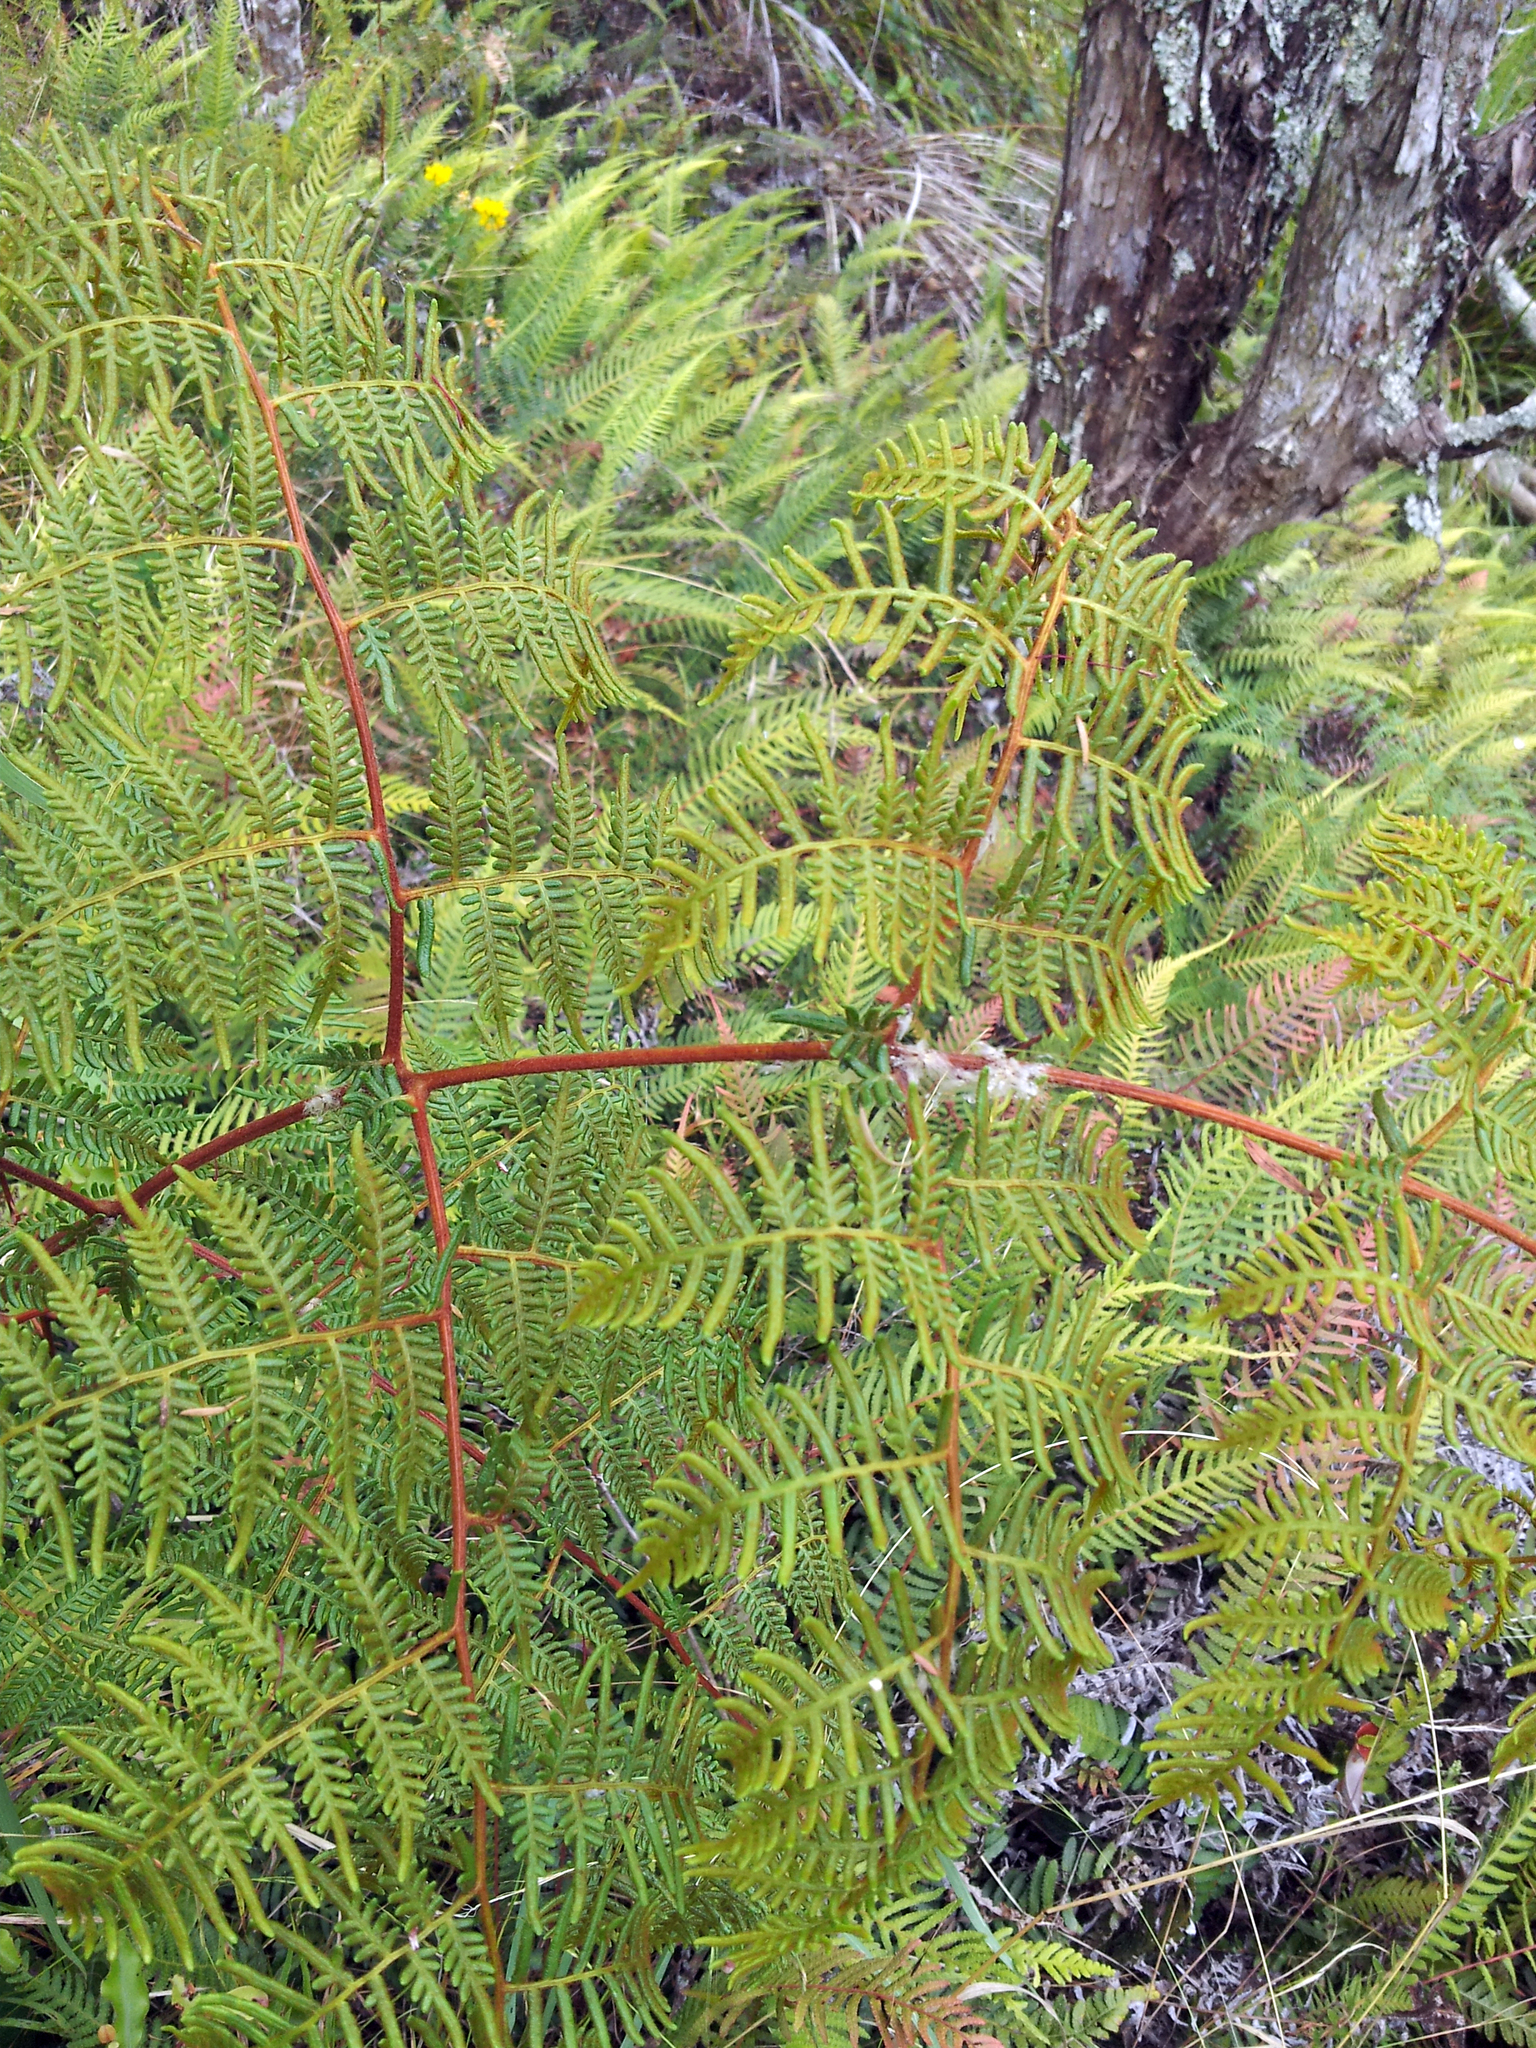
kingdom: Plantae
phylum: Tracheophyta
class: Polypodiopsida
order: Polypodiales
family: Dennstaedtiaceae
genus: Pteridium
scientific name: Pteridium esculentum
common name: Bracken fern
